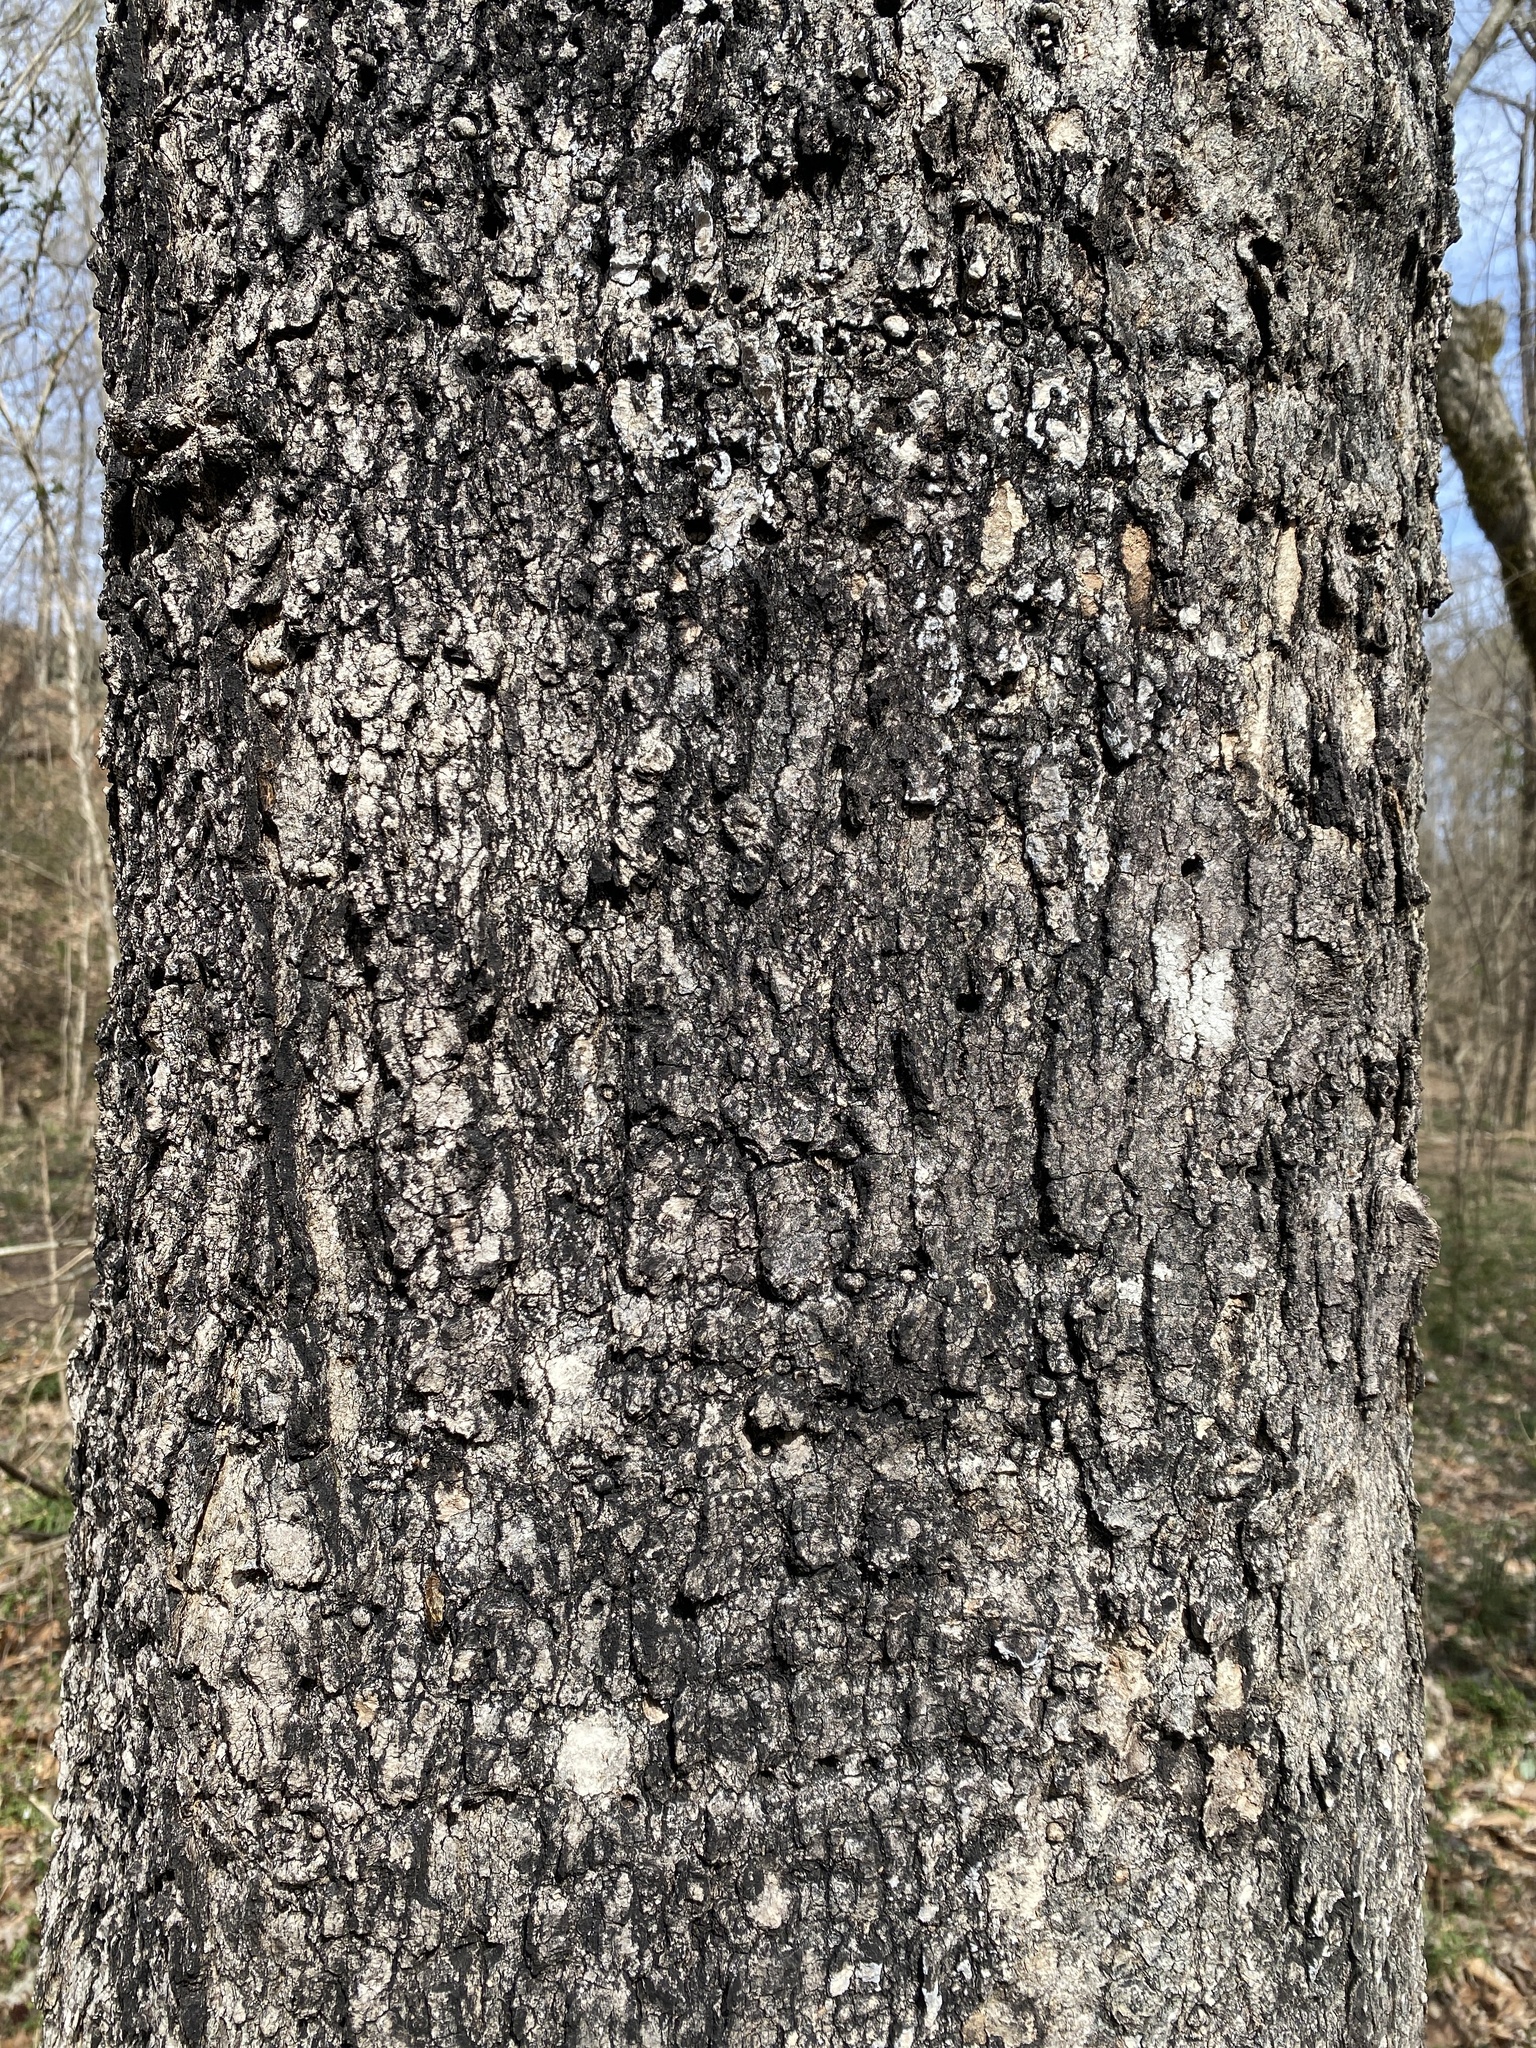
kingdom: Plantae
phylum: Tracheophyta
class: Magnoliopsida
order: Sapindales
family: Sapindaceae
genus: Acer
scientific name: Acer floridanum
